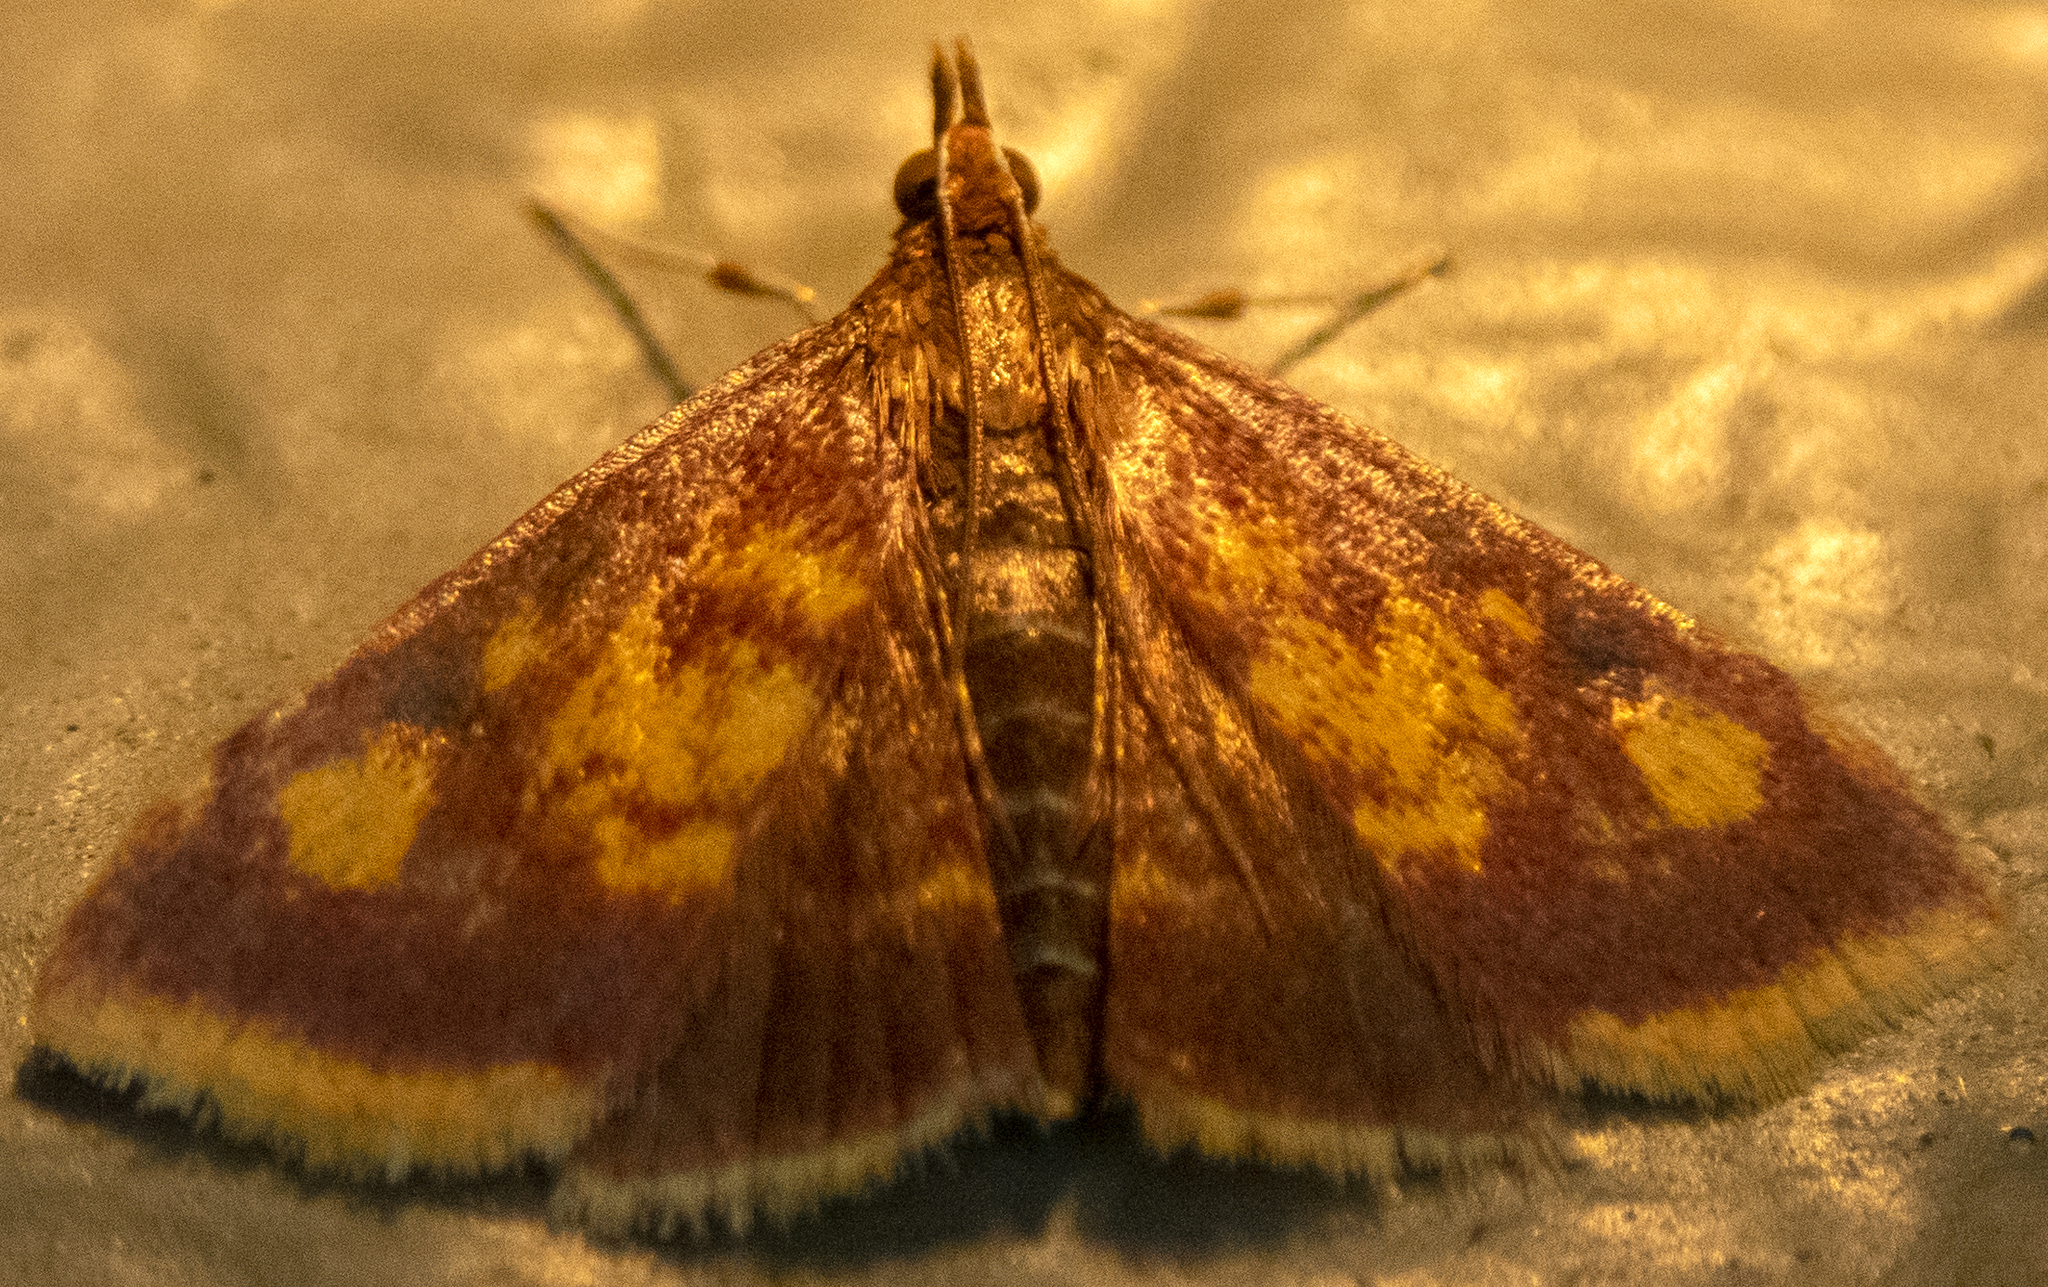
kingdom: Animalia
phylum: Arthropoda
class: Insecta
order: Lepidoptera
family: Crambidae
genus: Pyrausta
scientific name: Pyrausta acrionalis
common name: Mint-loving pyrausta moth
